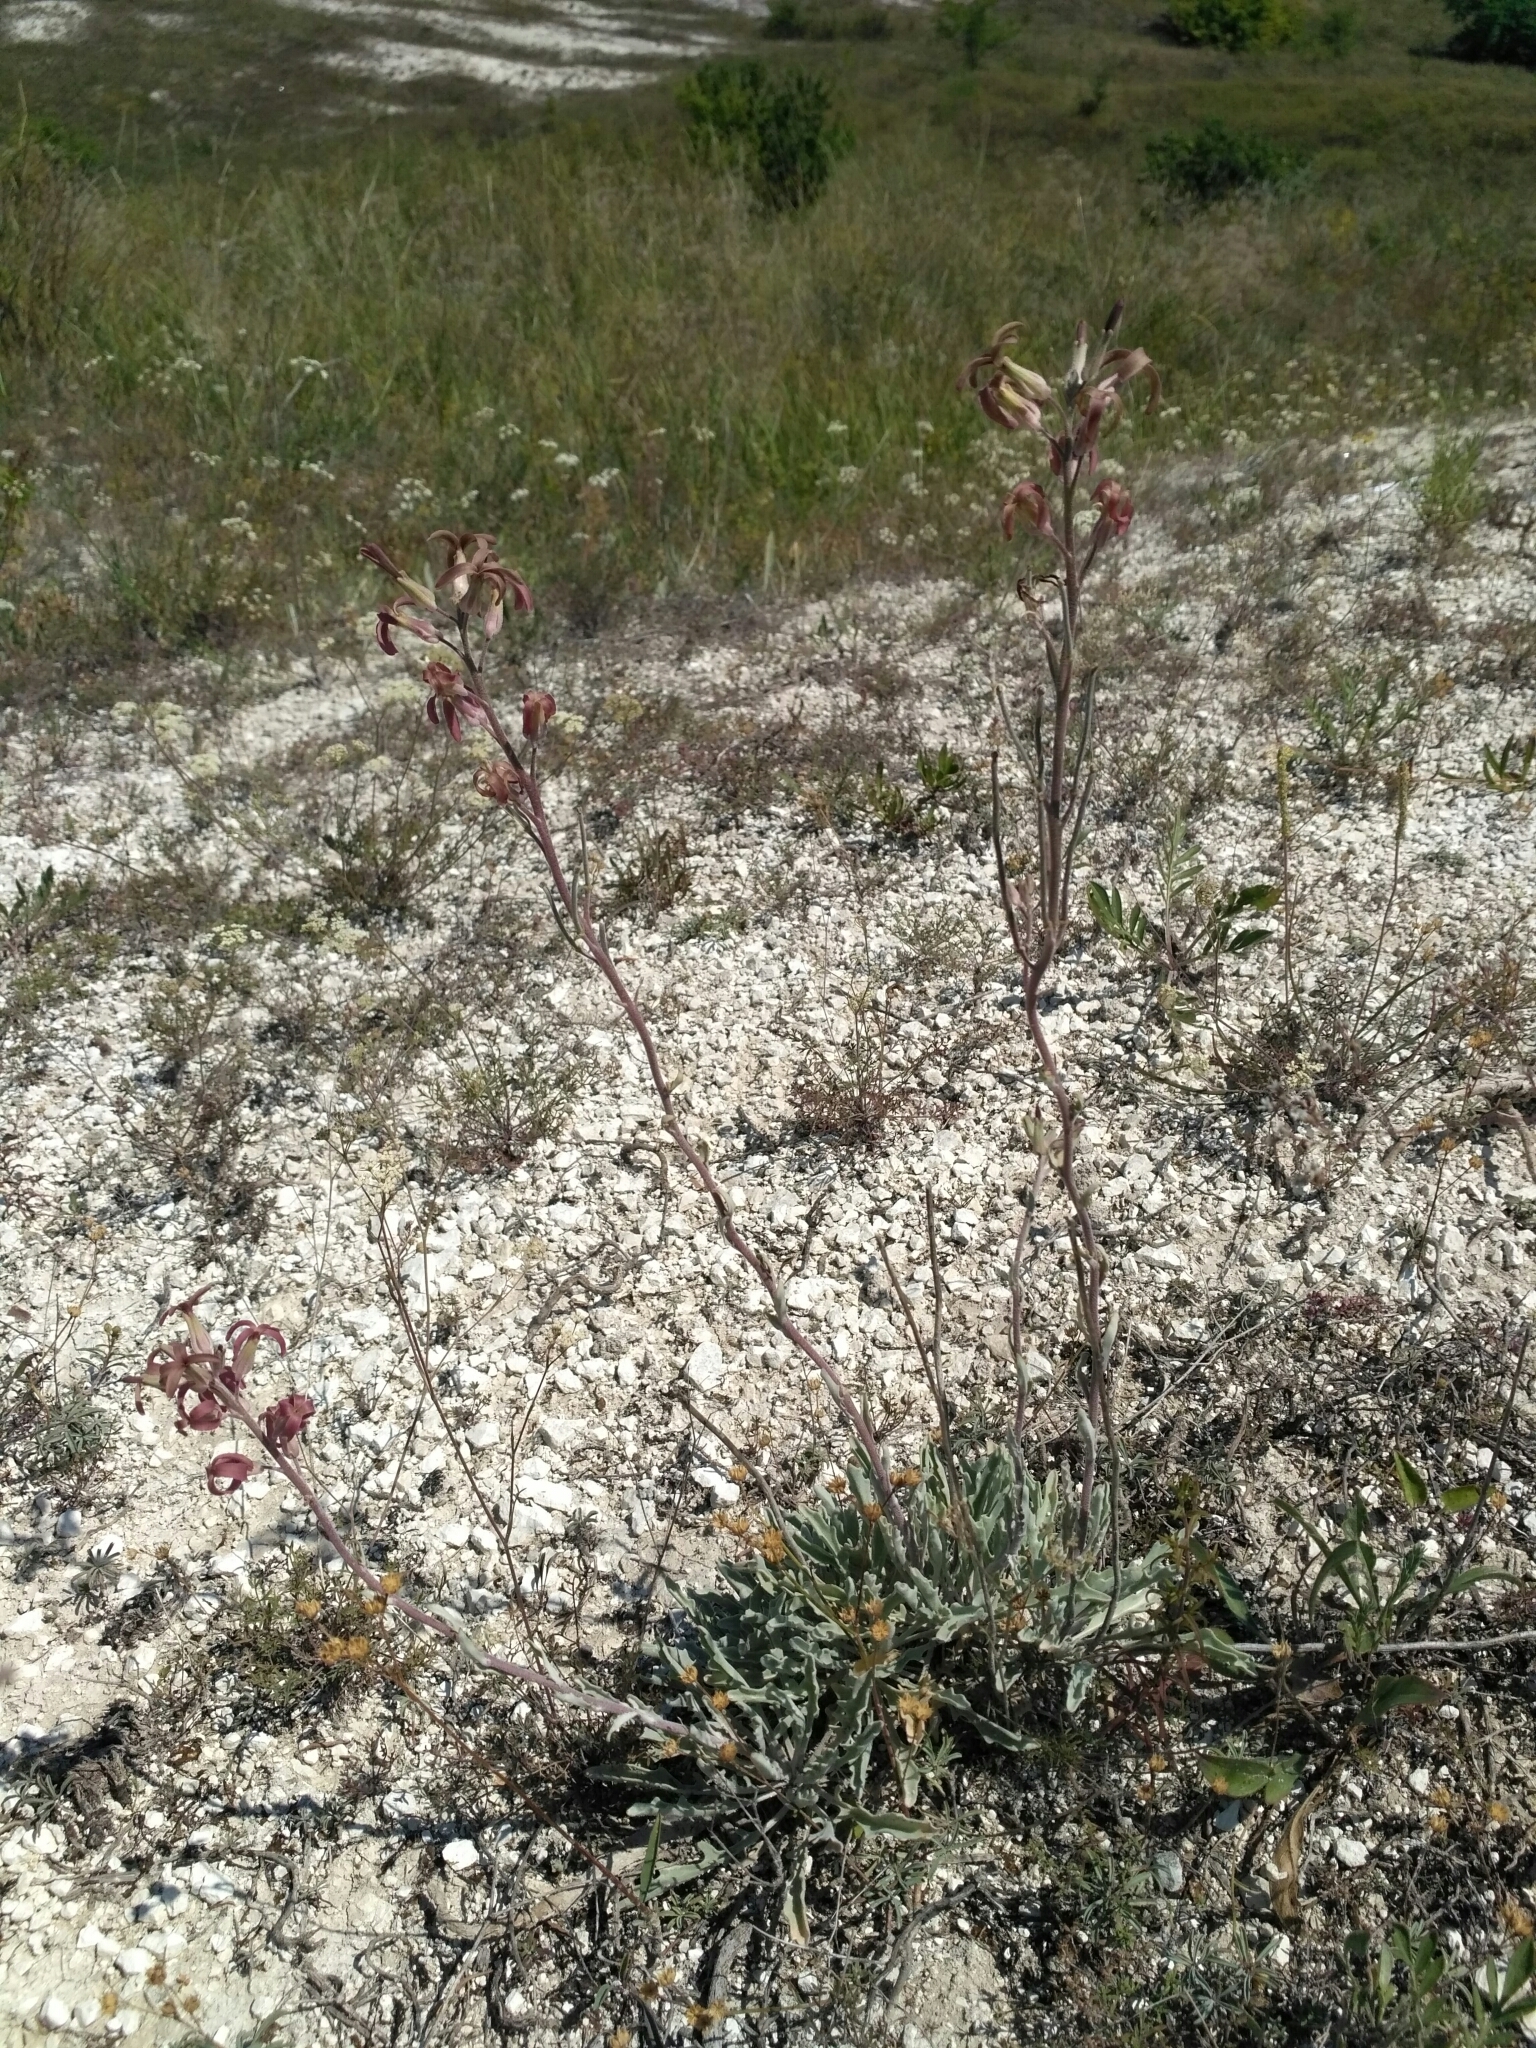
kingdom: Plantae
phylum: Tracheophyta
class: Magnoliopsida
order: Brassicales
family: Brassicaceae
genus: Matthiola
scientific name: Matthiola fragrans
